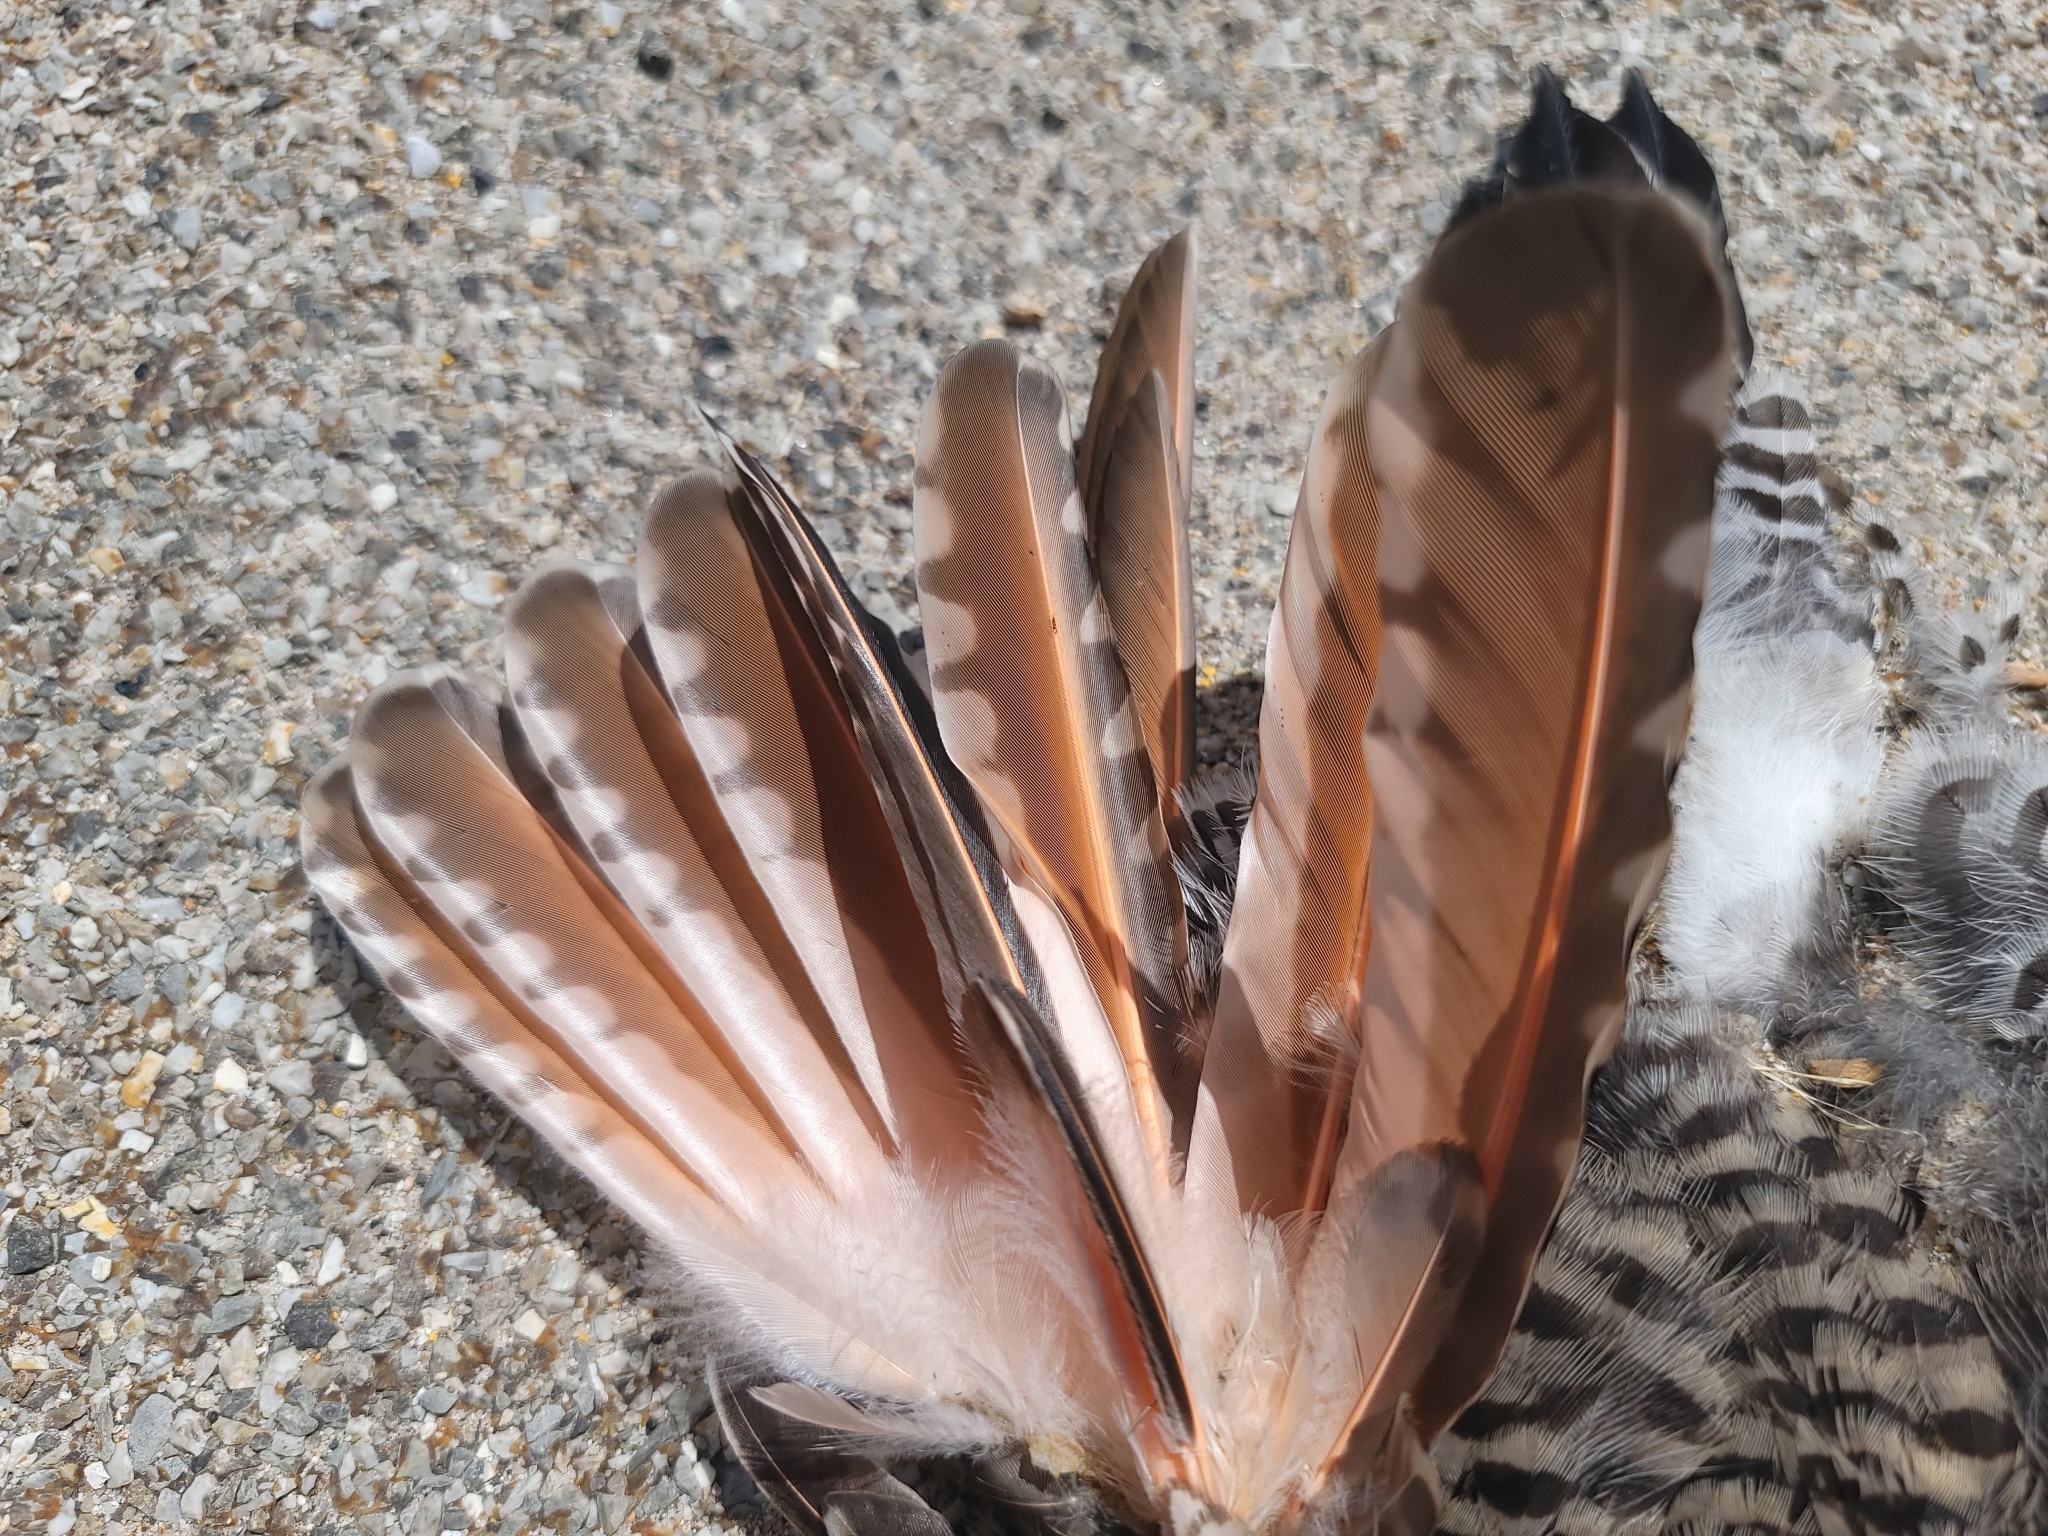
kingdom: Animalia
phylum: Chordata
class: Aves
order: Piciformes
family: Picidae
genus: Colaptes
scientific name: Colaptes auratus
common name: Northern flicker
